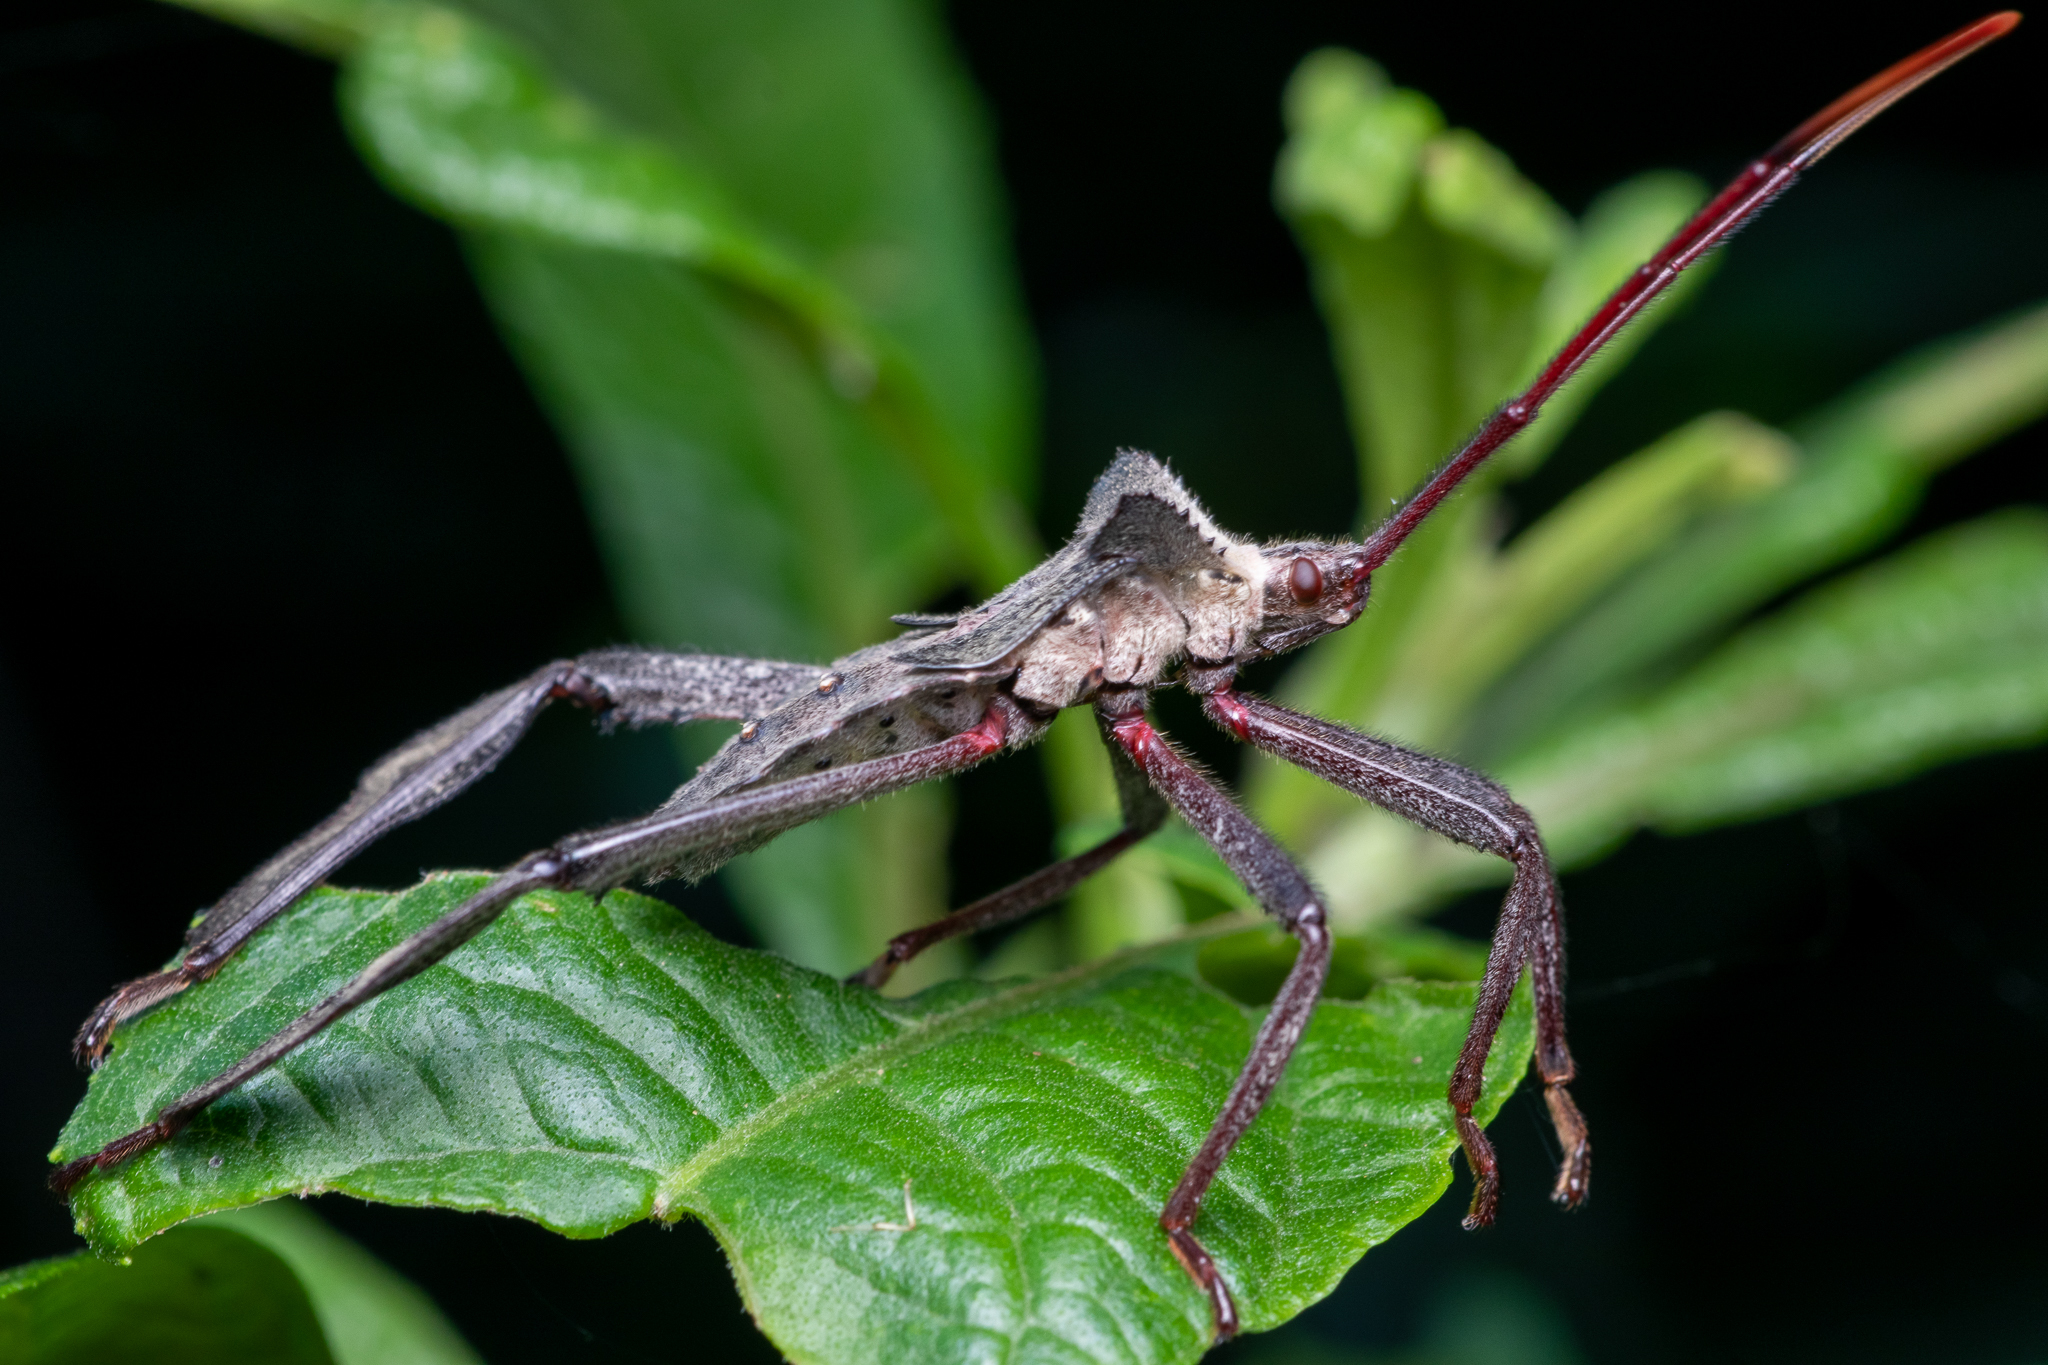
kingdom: Animalia
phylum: Arthropoda
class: Insecta
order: Hemiptera
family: Coreidae
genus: Acanthocephala
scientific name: Acanthocephala declivis
